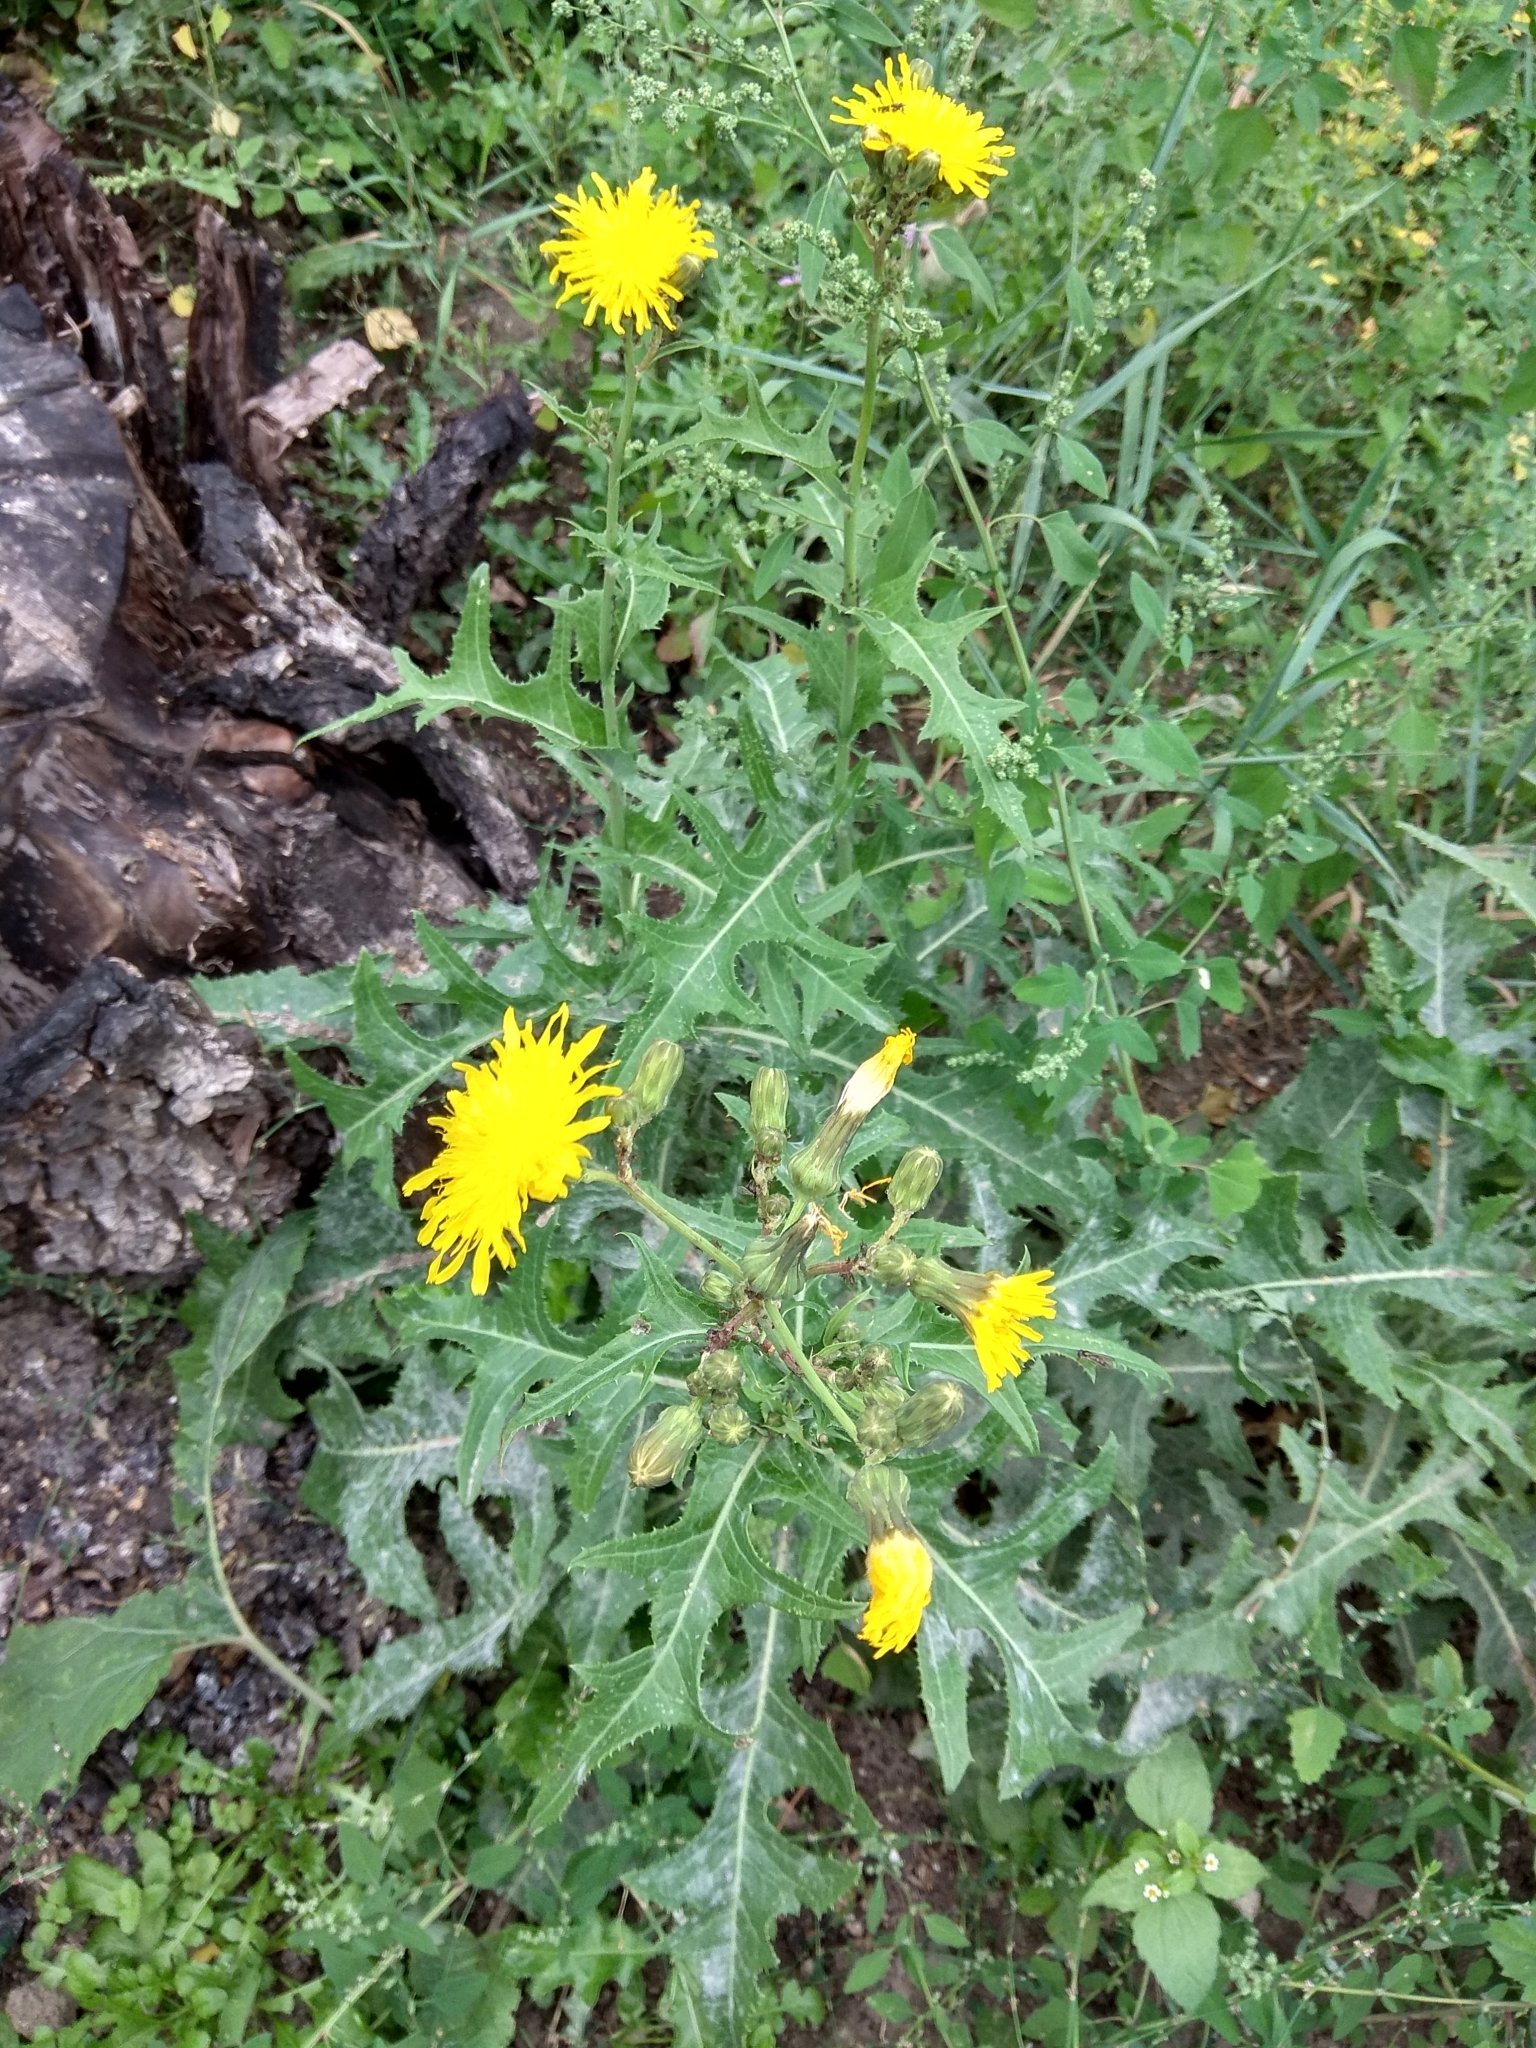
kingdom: Plantae
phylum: Tracheophyta
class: Magnoliopsida
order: Asterales
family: Asteraceae
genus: Sonchus
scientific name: Sonchus arvensis
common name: Perennial sow-thistle
